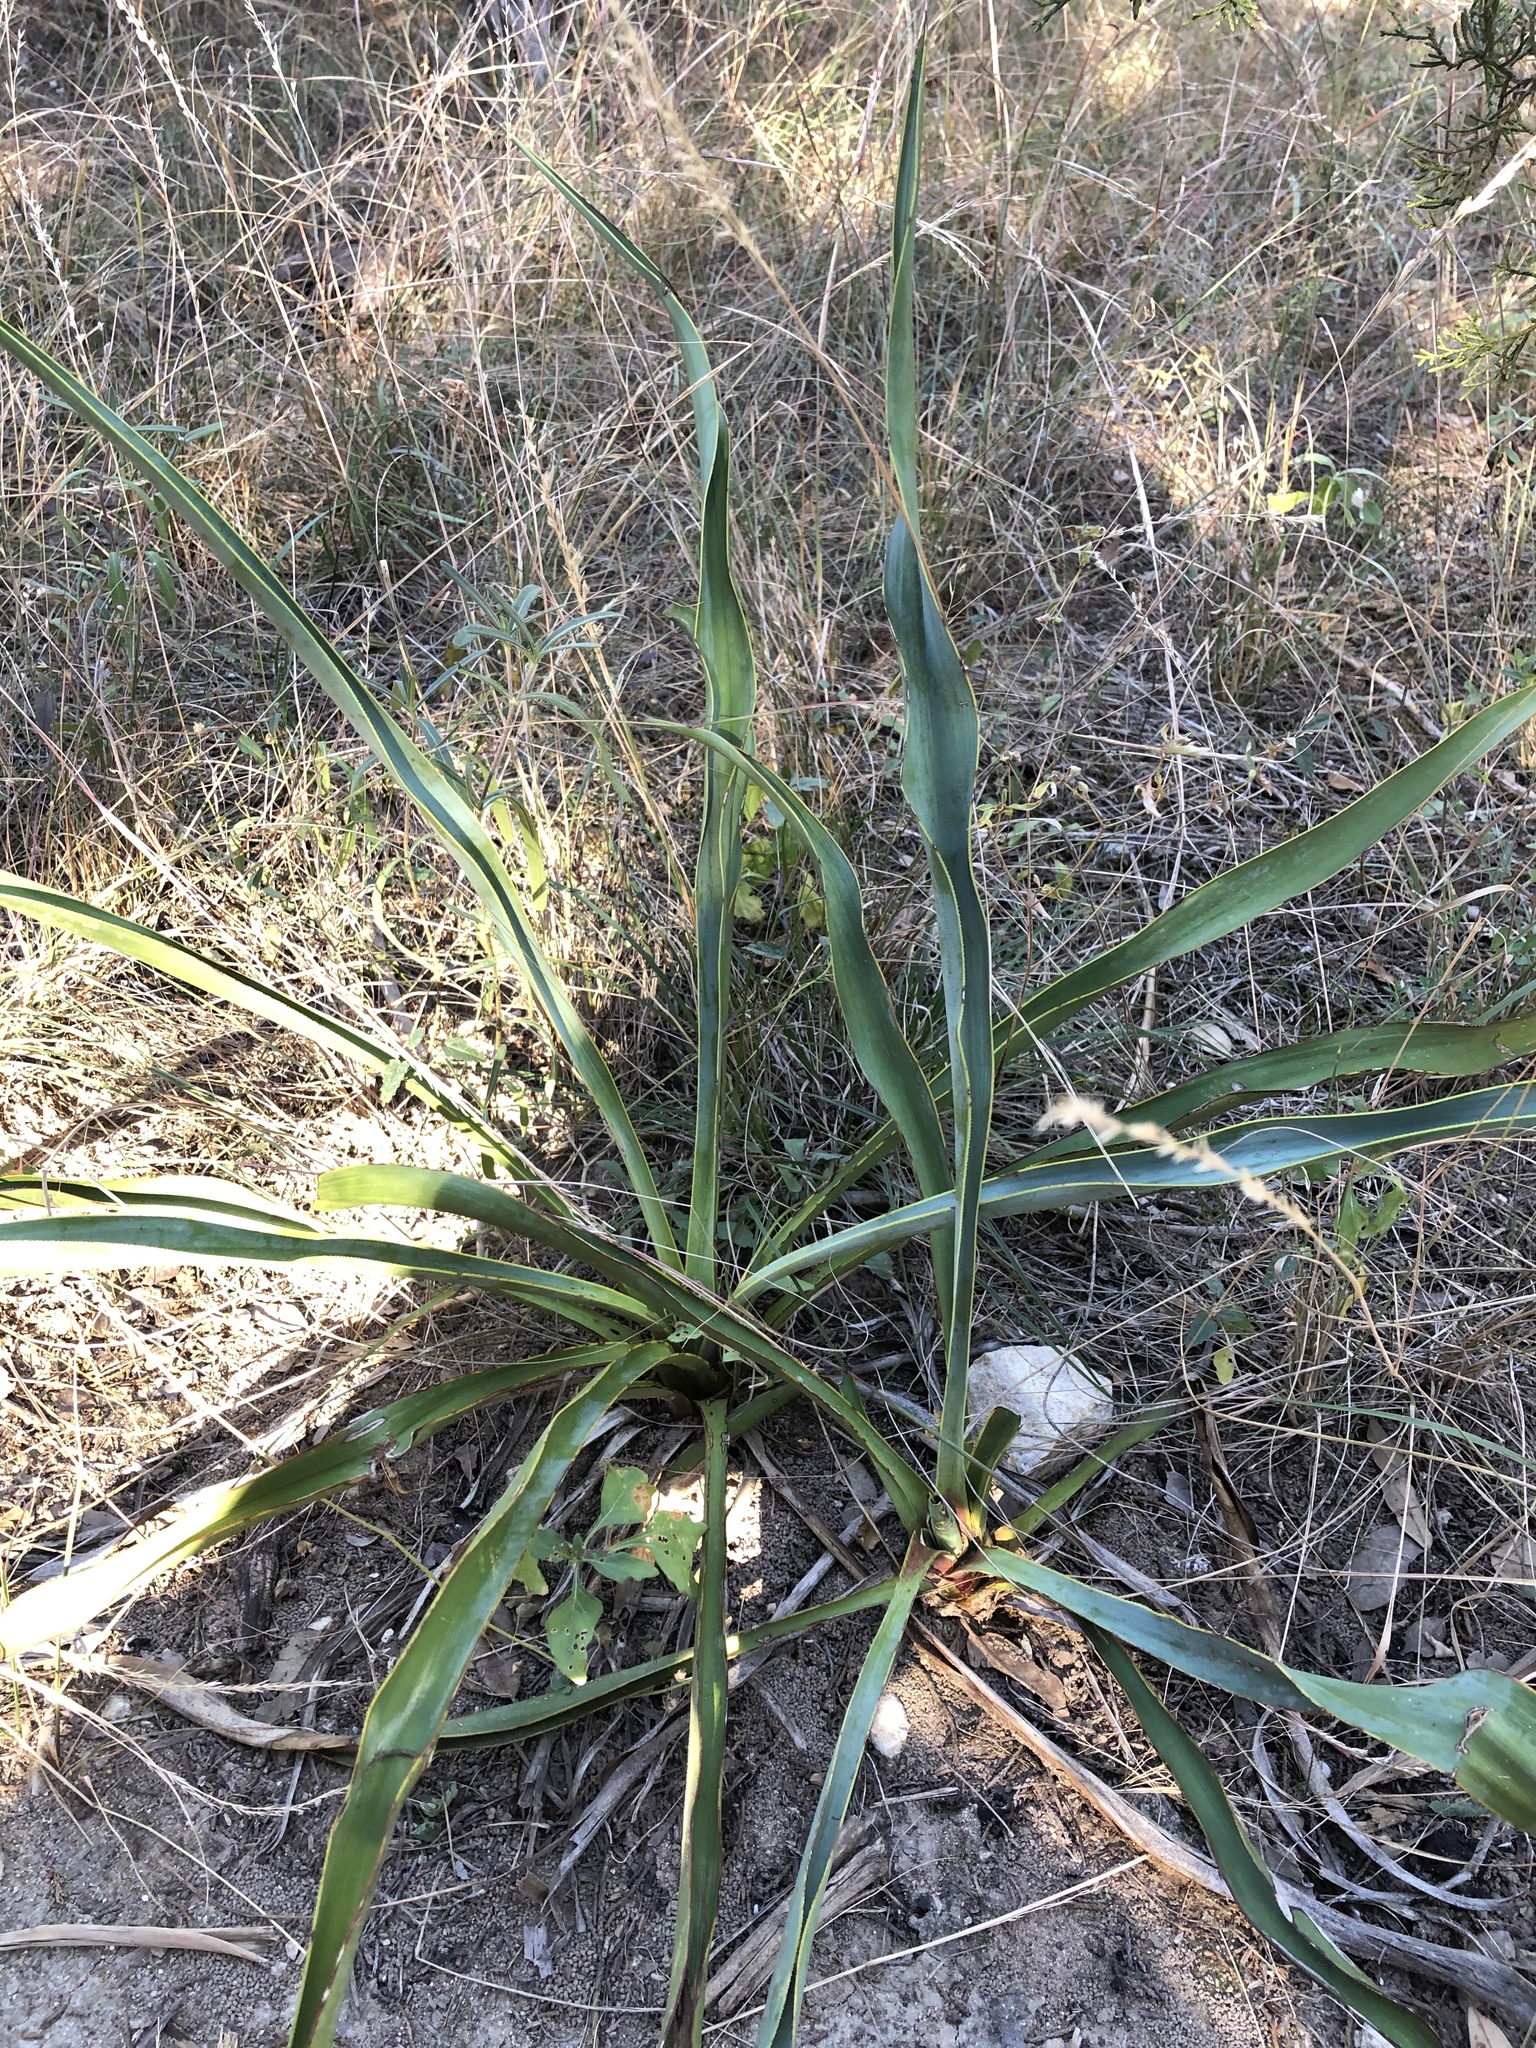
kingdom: Plantae
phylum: Tracheophyta
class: Liliopsida
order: Asparagales
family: Asparagaceae
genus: Yucca
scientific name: Yucca rupicola
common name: Twisted-leaf spanish-dagger
